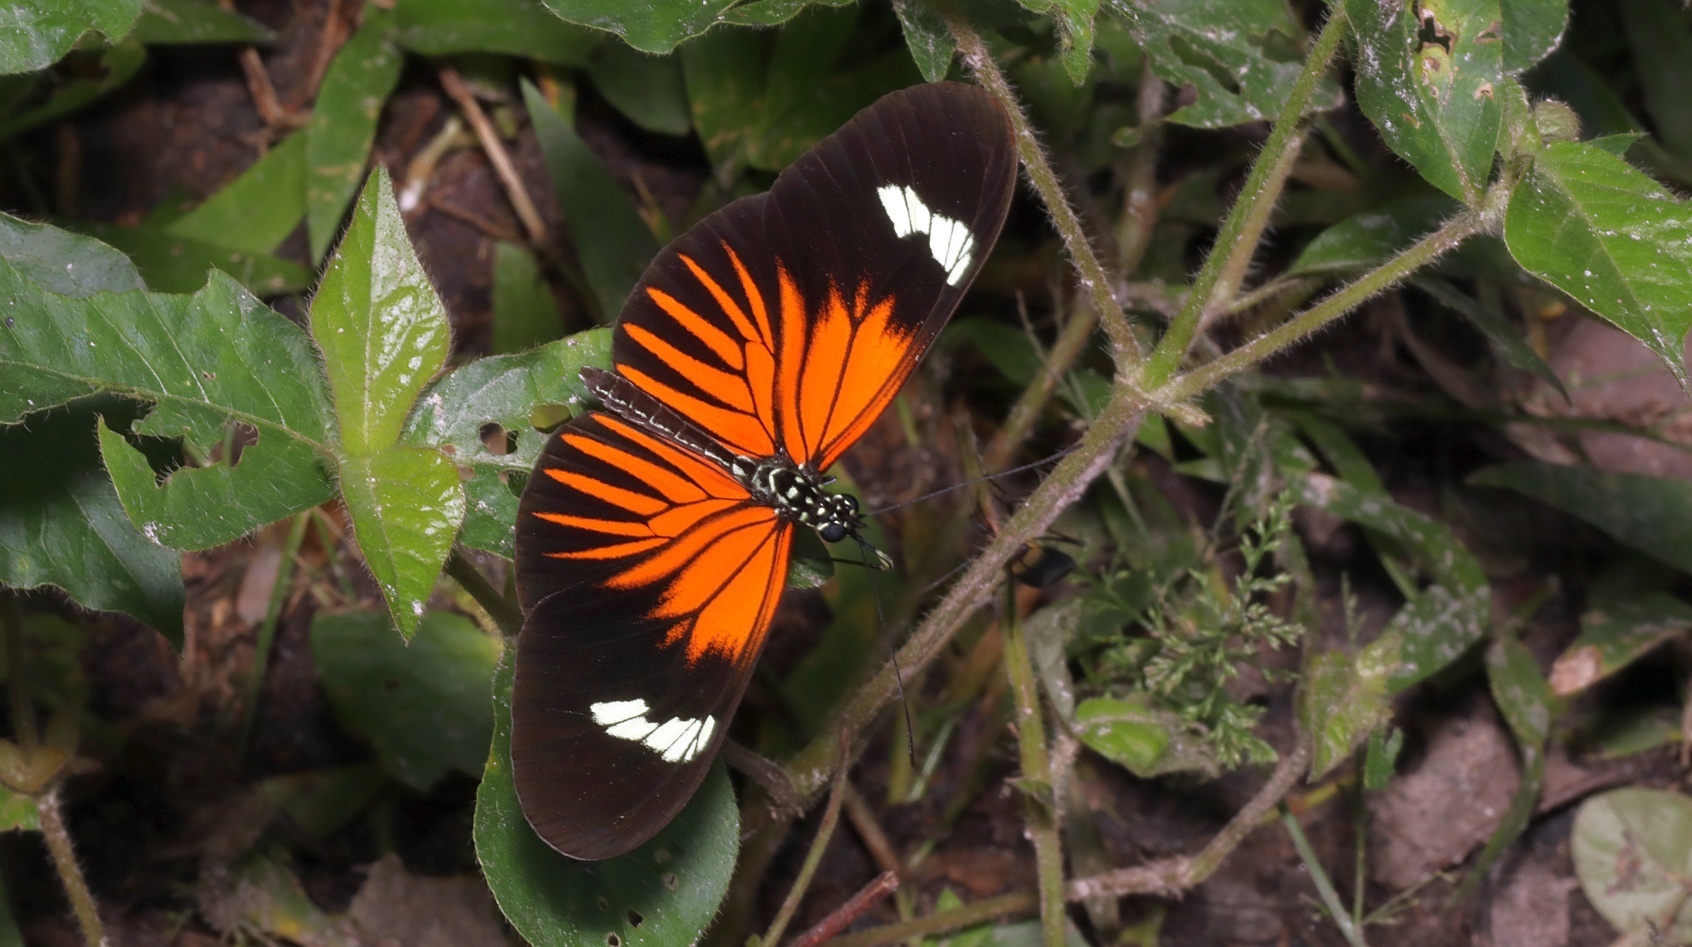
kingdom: Animalia
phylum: Arthropoda
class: Insecta
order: Lepidoptera
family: Nymphalidae
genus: Heliconius
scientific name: Heliconius erato
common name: Common patch longwing
